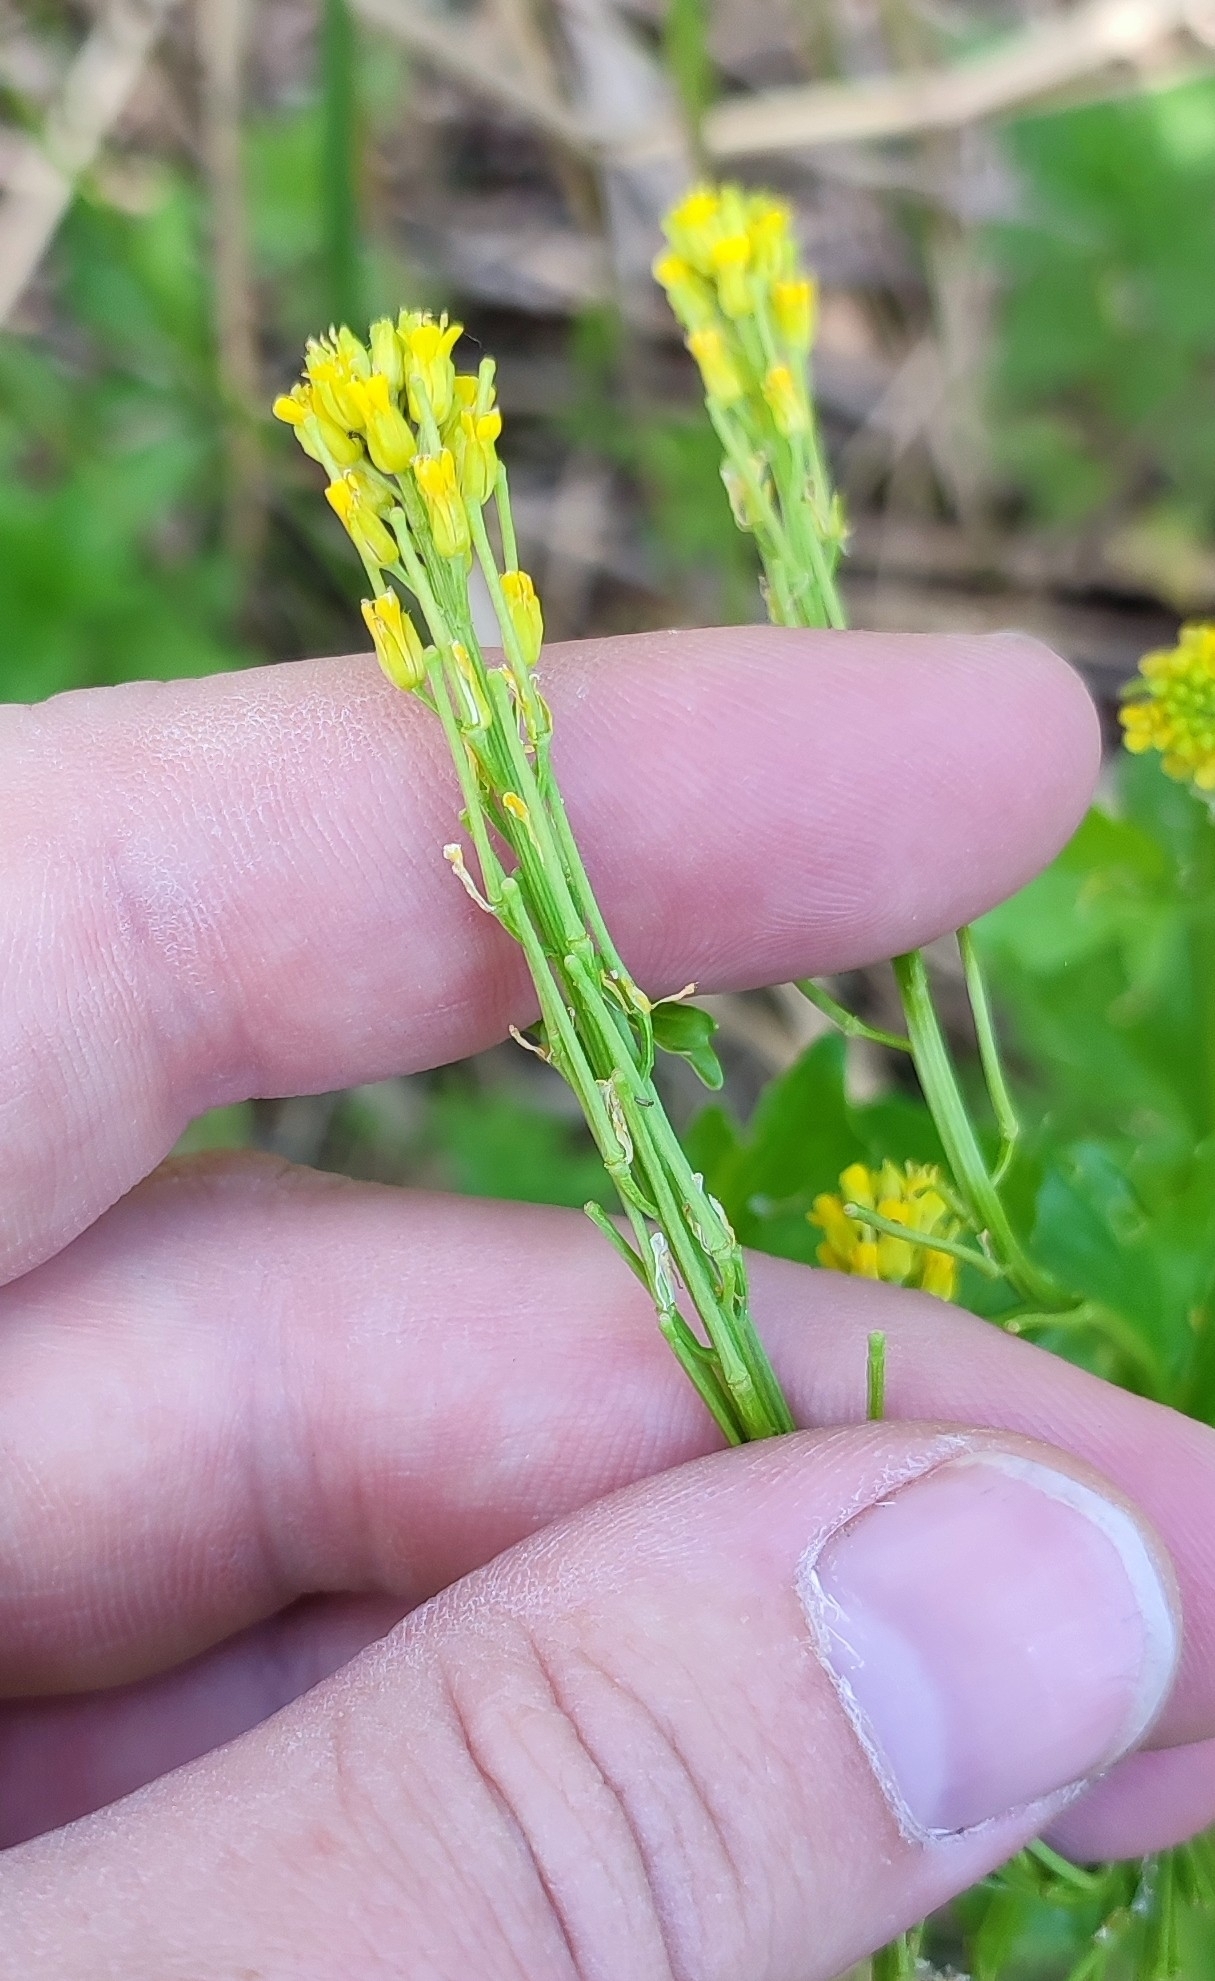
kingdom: Plantae
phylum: Tracheophyta
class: Magnoliopsida
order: Brassicales
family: Brassicaceae
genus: Barbarea
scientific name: Barbarea stricta
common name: Small-flowered winter-cress
